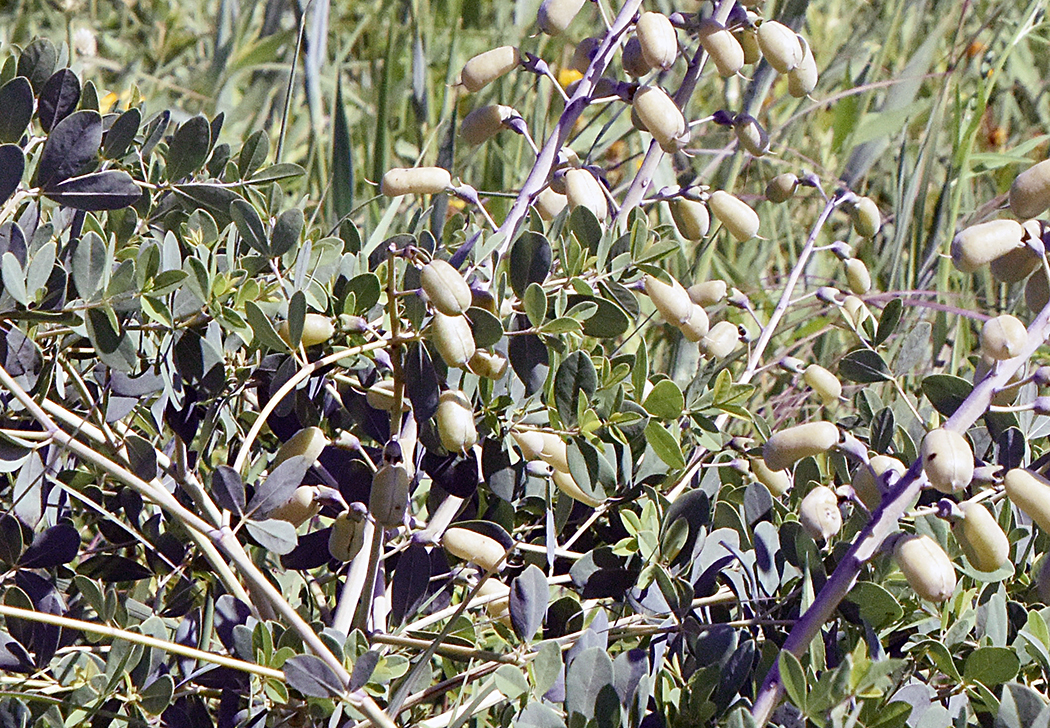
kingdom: Plantae
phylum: Tracheophyta
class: Magnoliopsida
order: Fabales
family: Fabaceae
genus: Baptisia
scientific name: Baptisia alba
